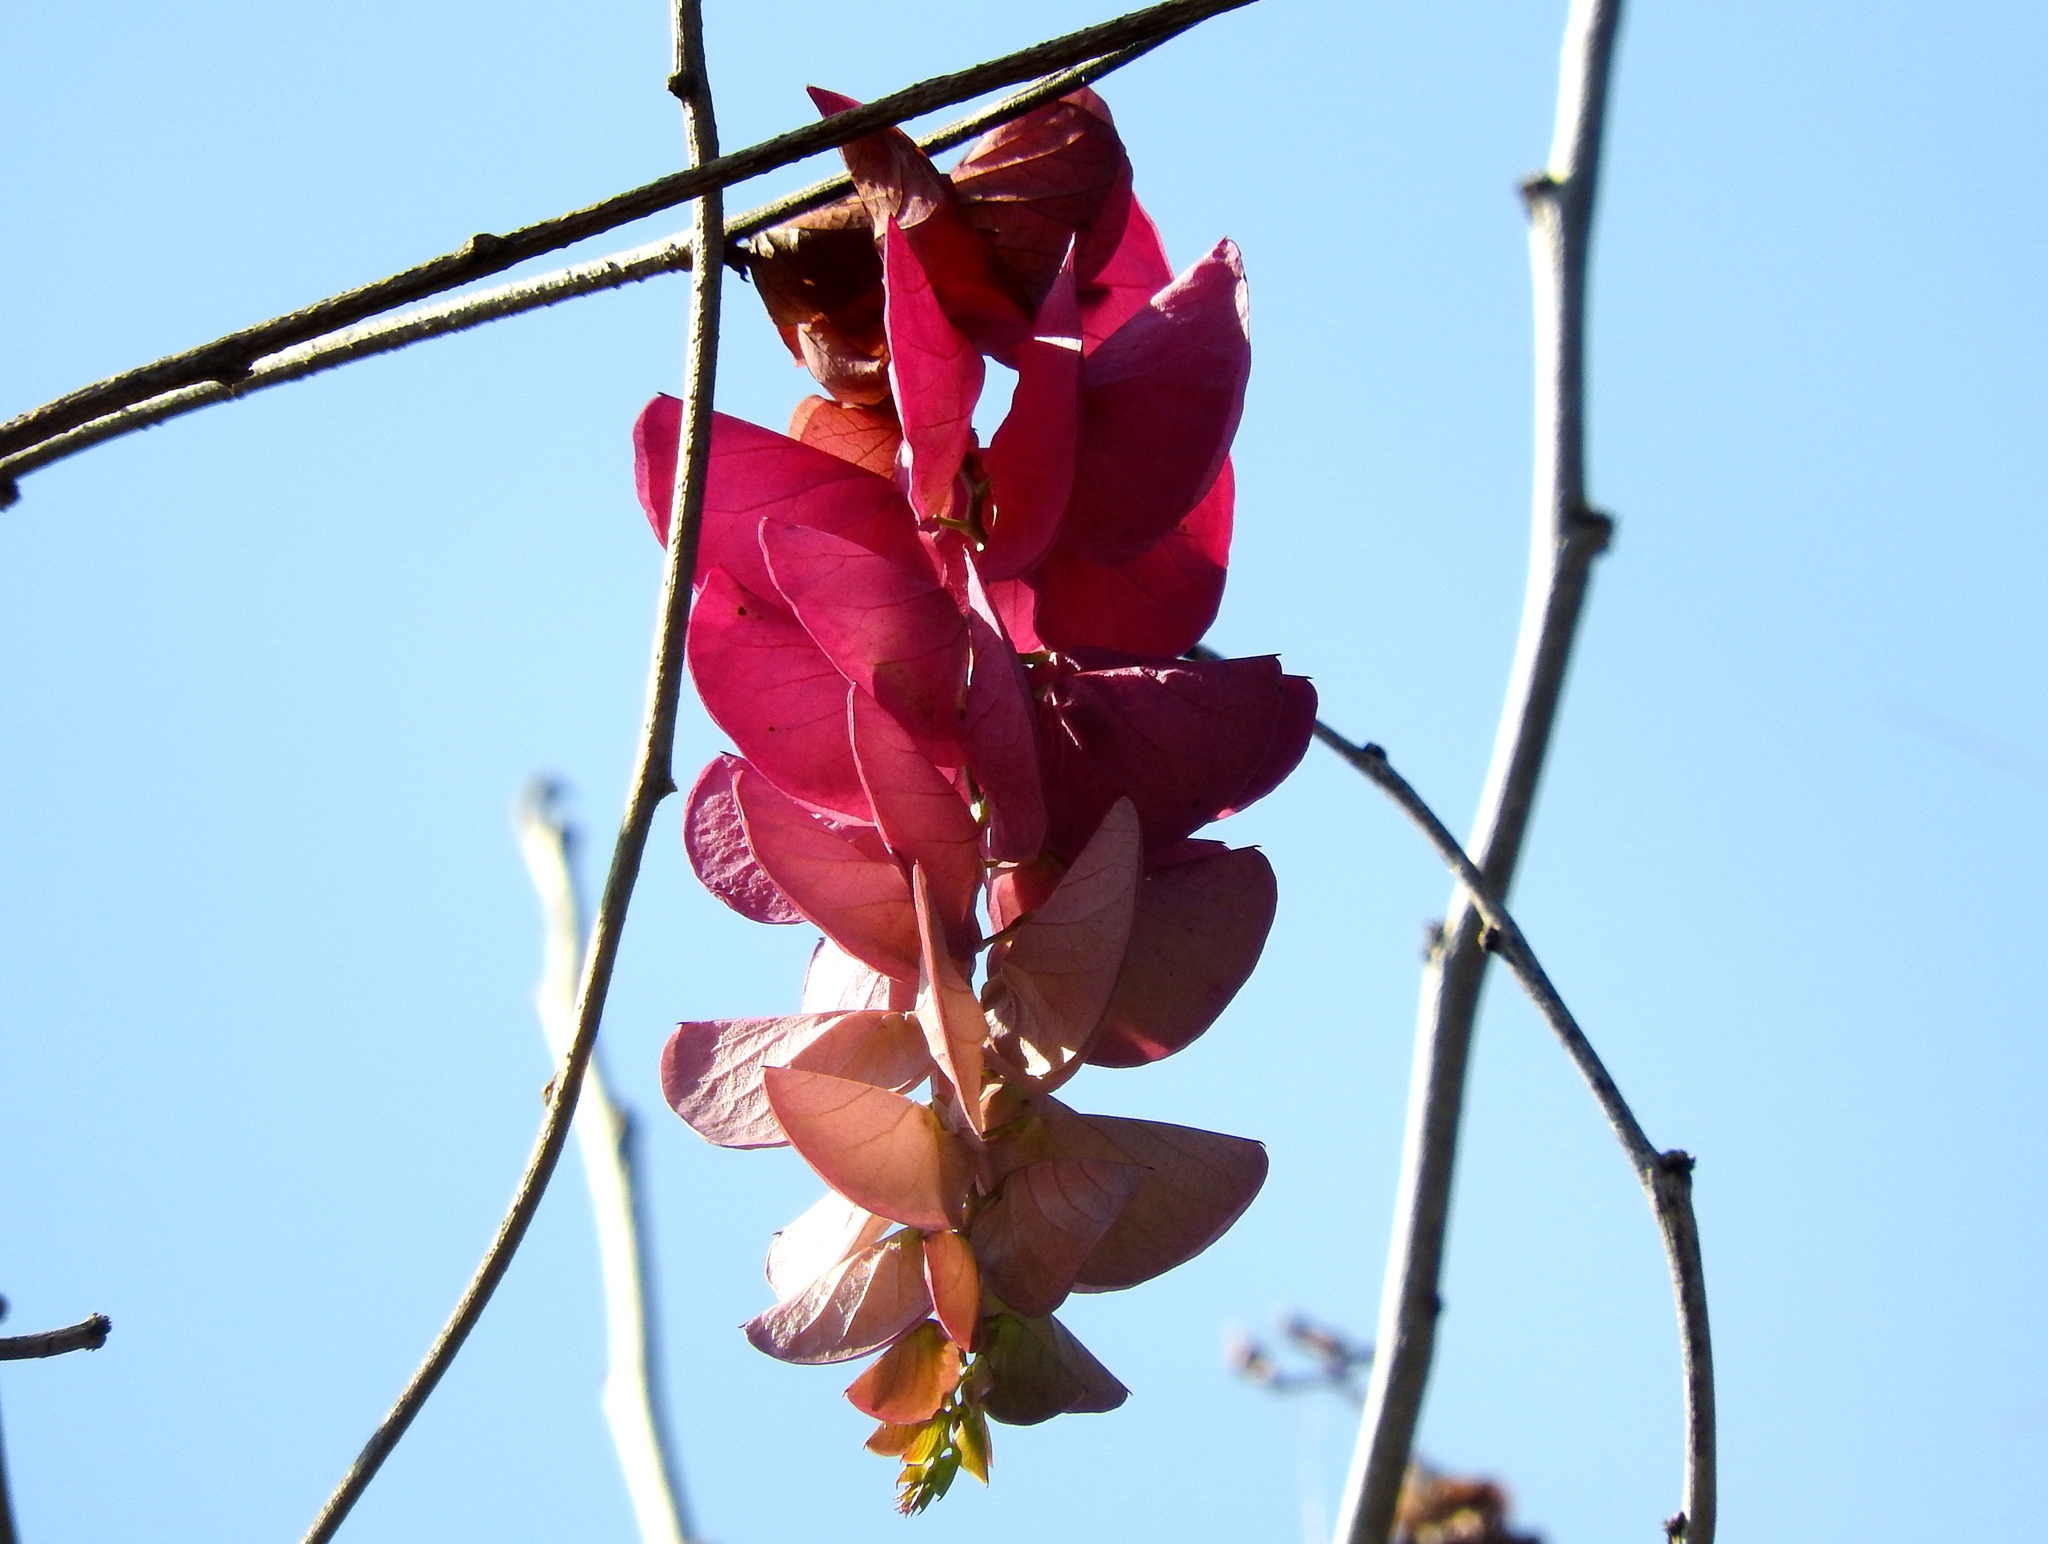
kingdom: Plantae
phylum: Tracheophyta
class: Magnoliopsida
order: Solanales
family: Convolvulaceae
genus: Ipomoea
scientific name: Ipomoea bracteata
